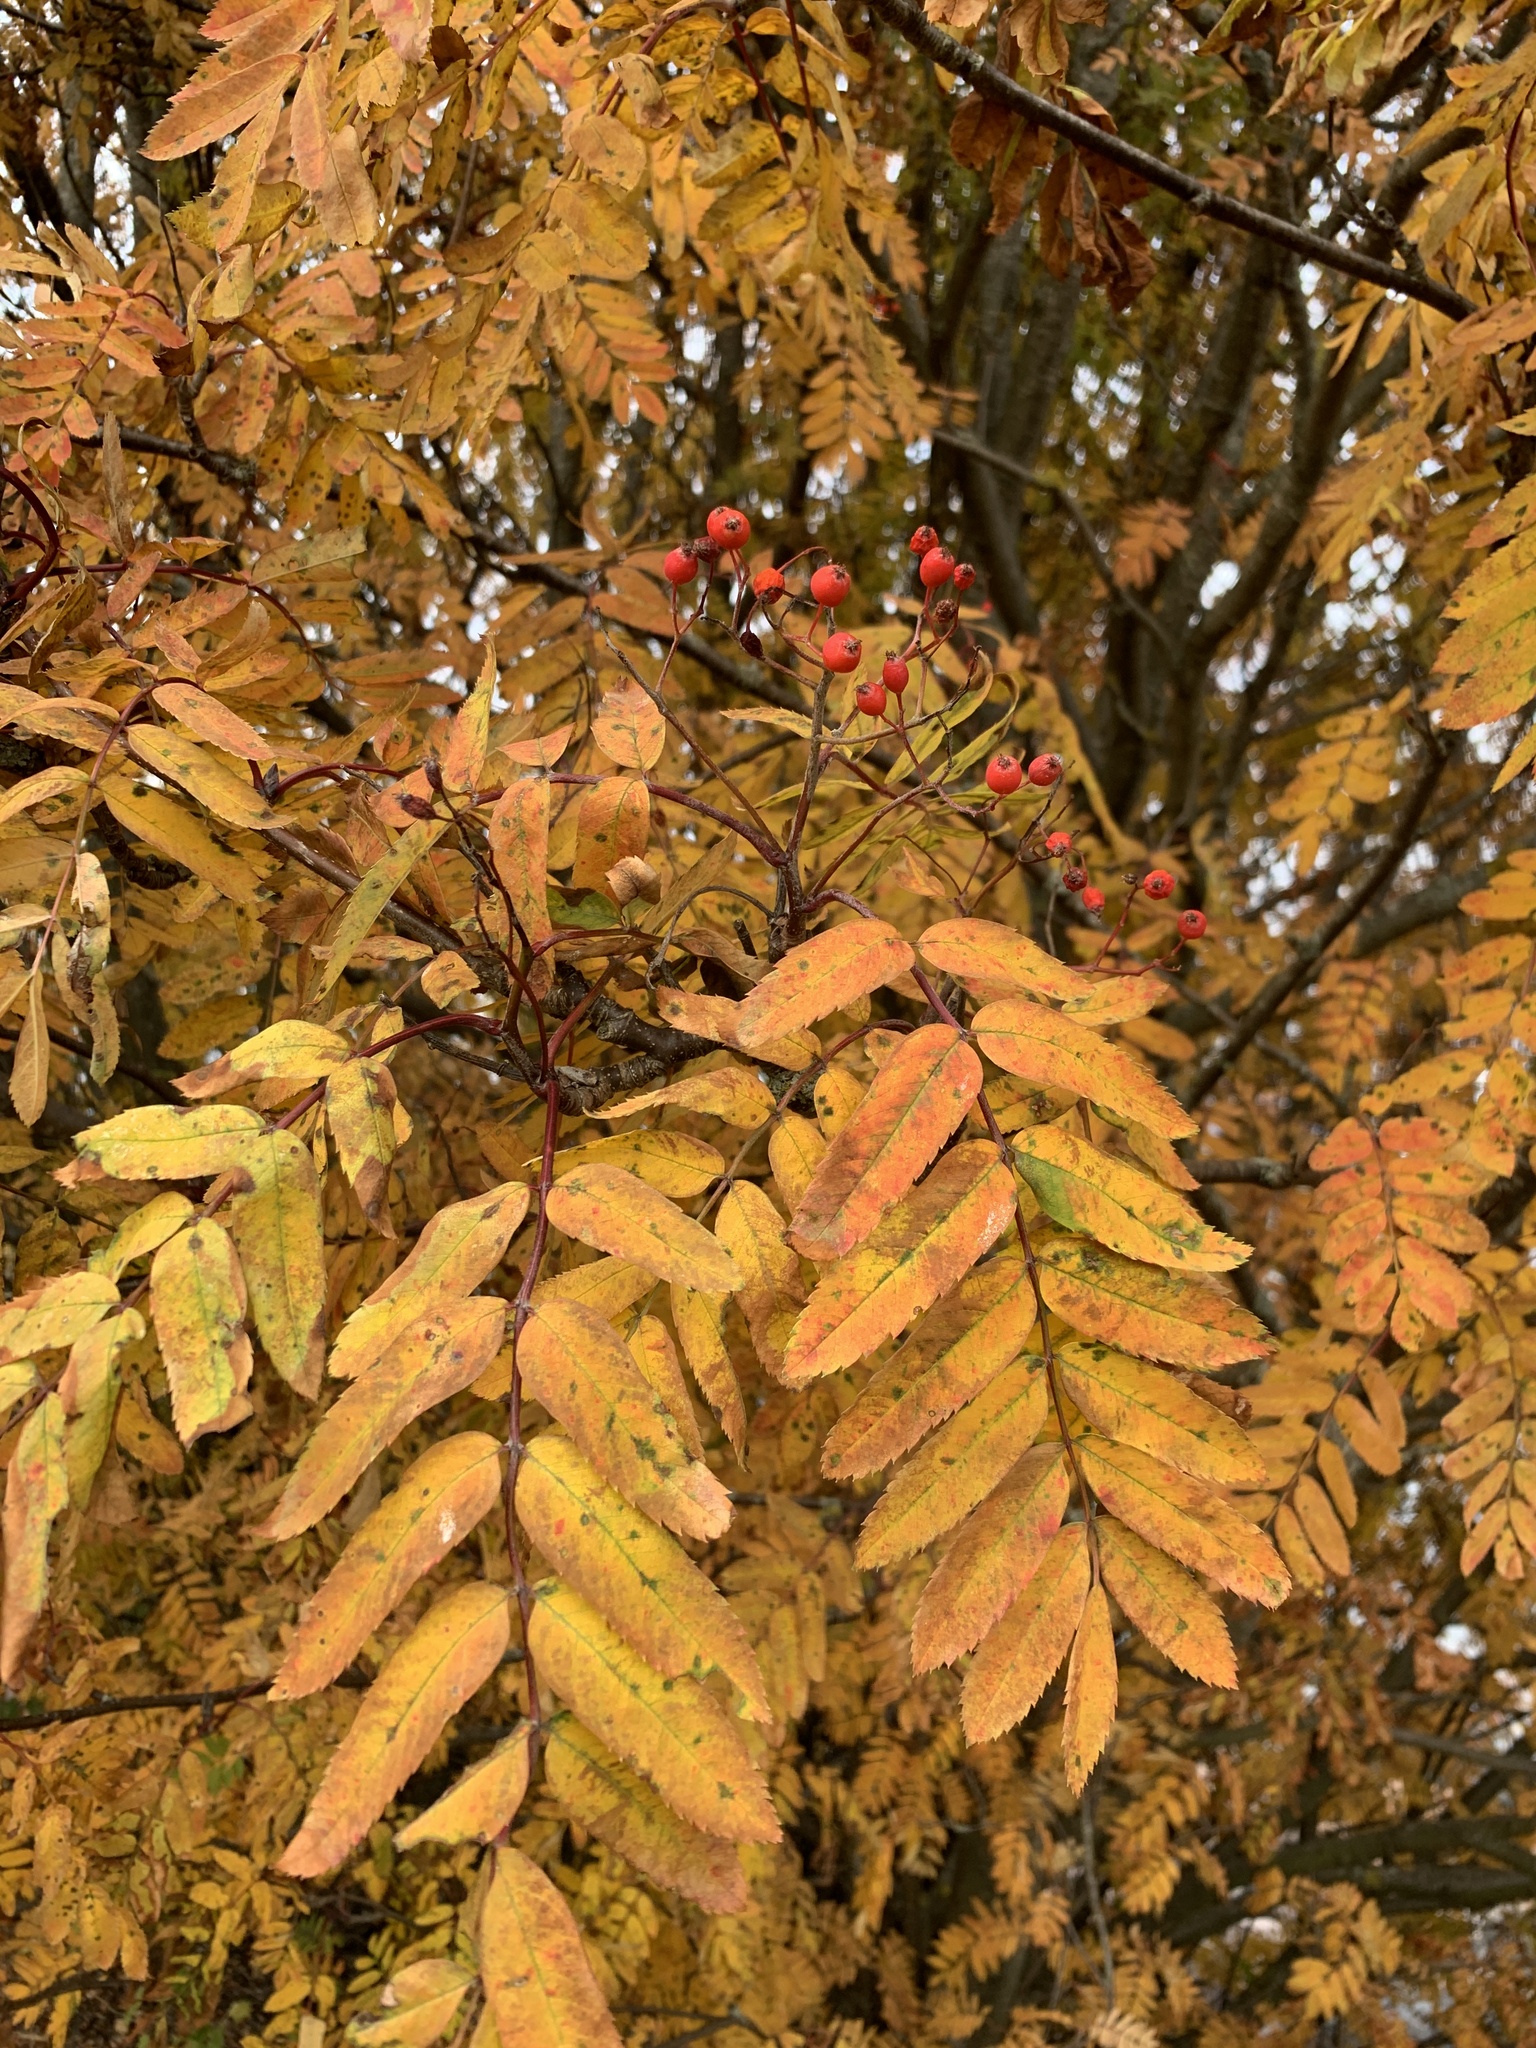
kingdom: Plantae
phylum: Tracheophyta
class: Magnoliopsida
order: Rosales
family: Rosaceae
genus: Sorbus
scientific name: Sorbus aucuparia
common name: Rowan
